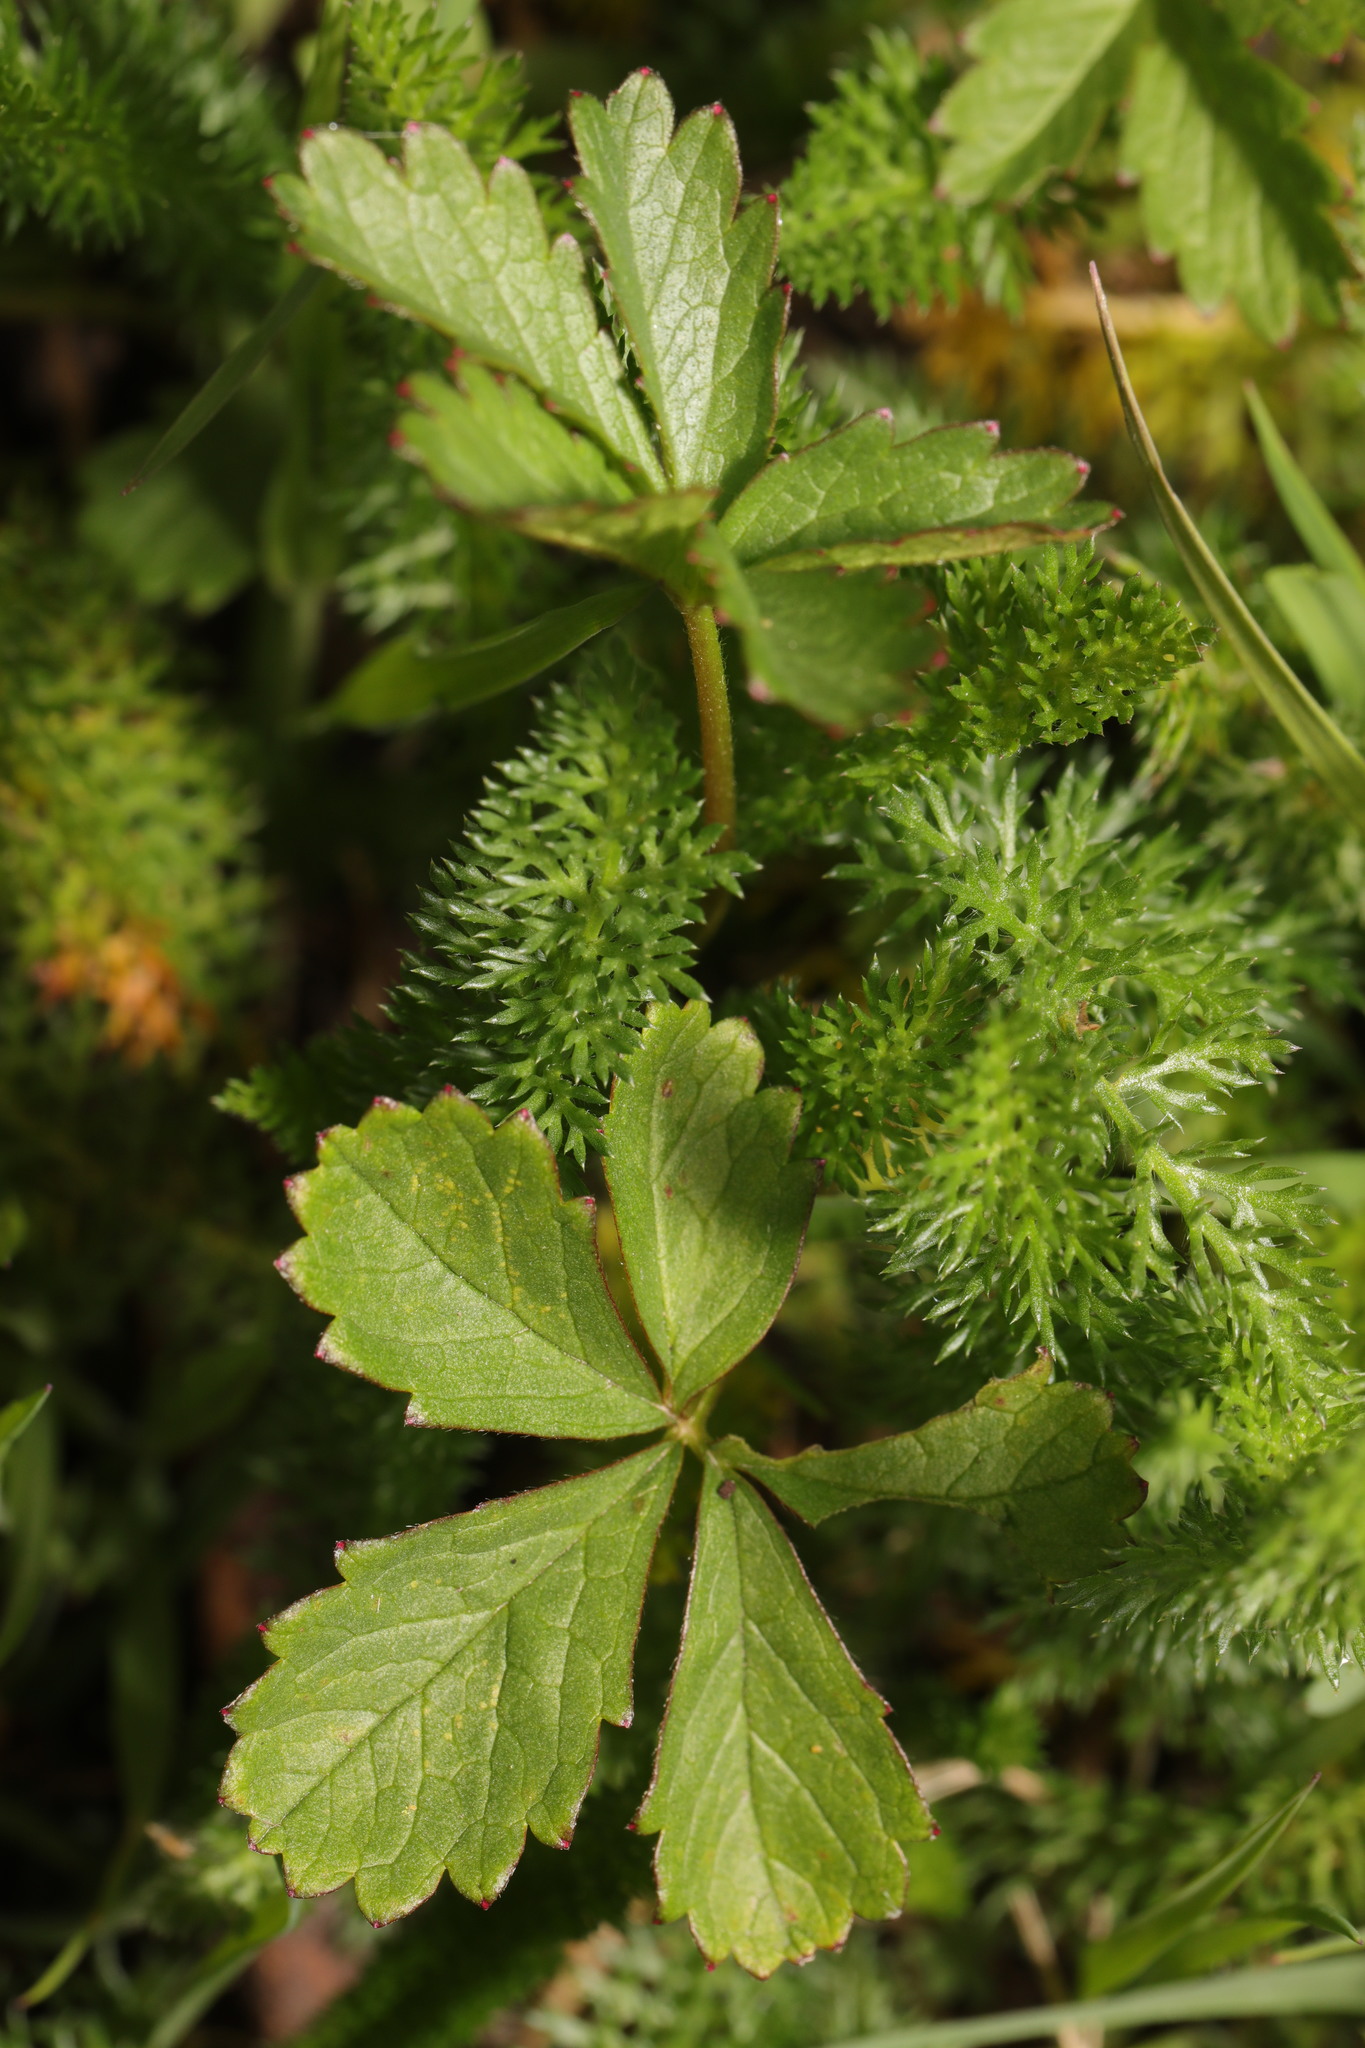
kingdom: Plantae
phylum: Tracheophyta
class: Magnoliopsida
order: Rosales
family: Rosaceae
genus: Potentilla
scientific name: Potentilla reptans
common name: Creeping cinquefoil
